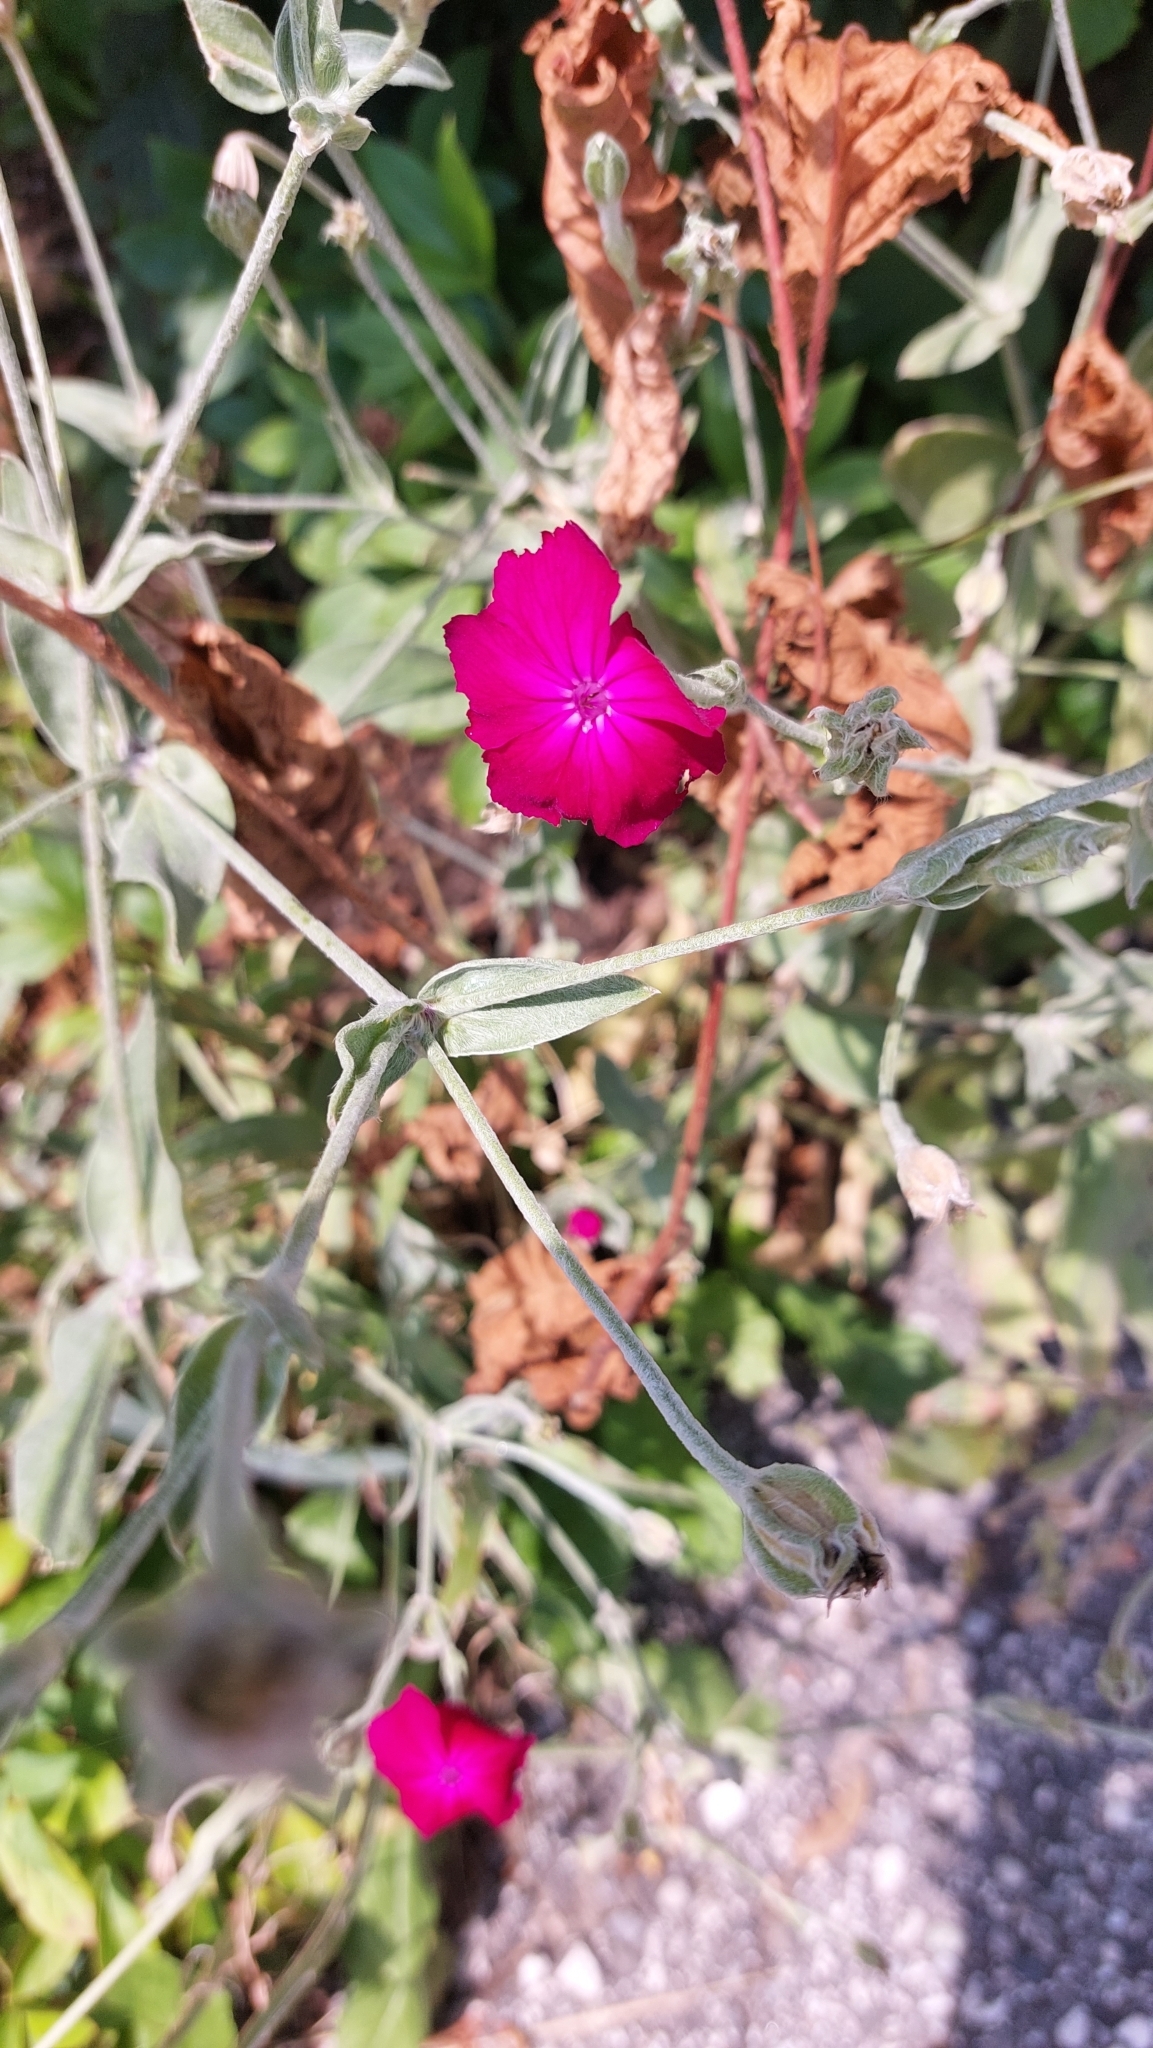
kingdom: Plantae
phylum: Tracheophyta
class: Magnoliopsida
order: Caryophyllales
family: Caryophyllaceae
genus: Silene
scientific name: Silene coronaria
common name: Rose campion
